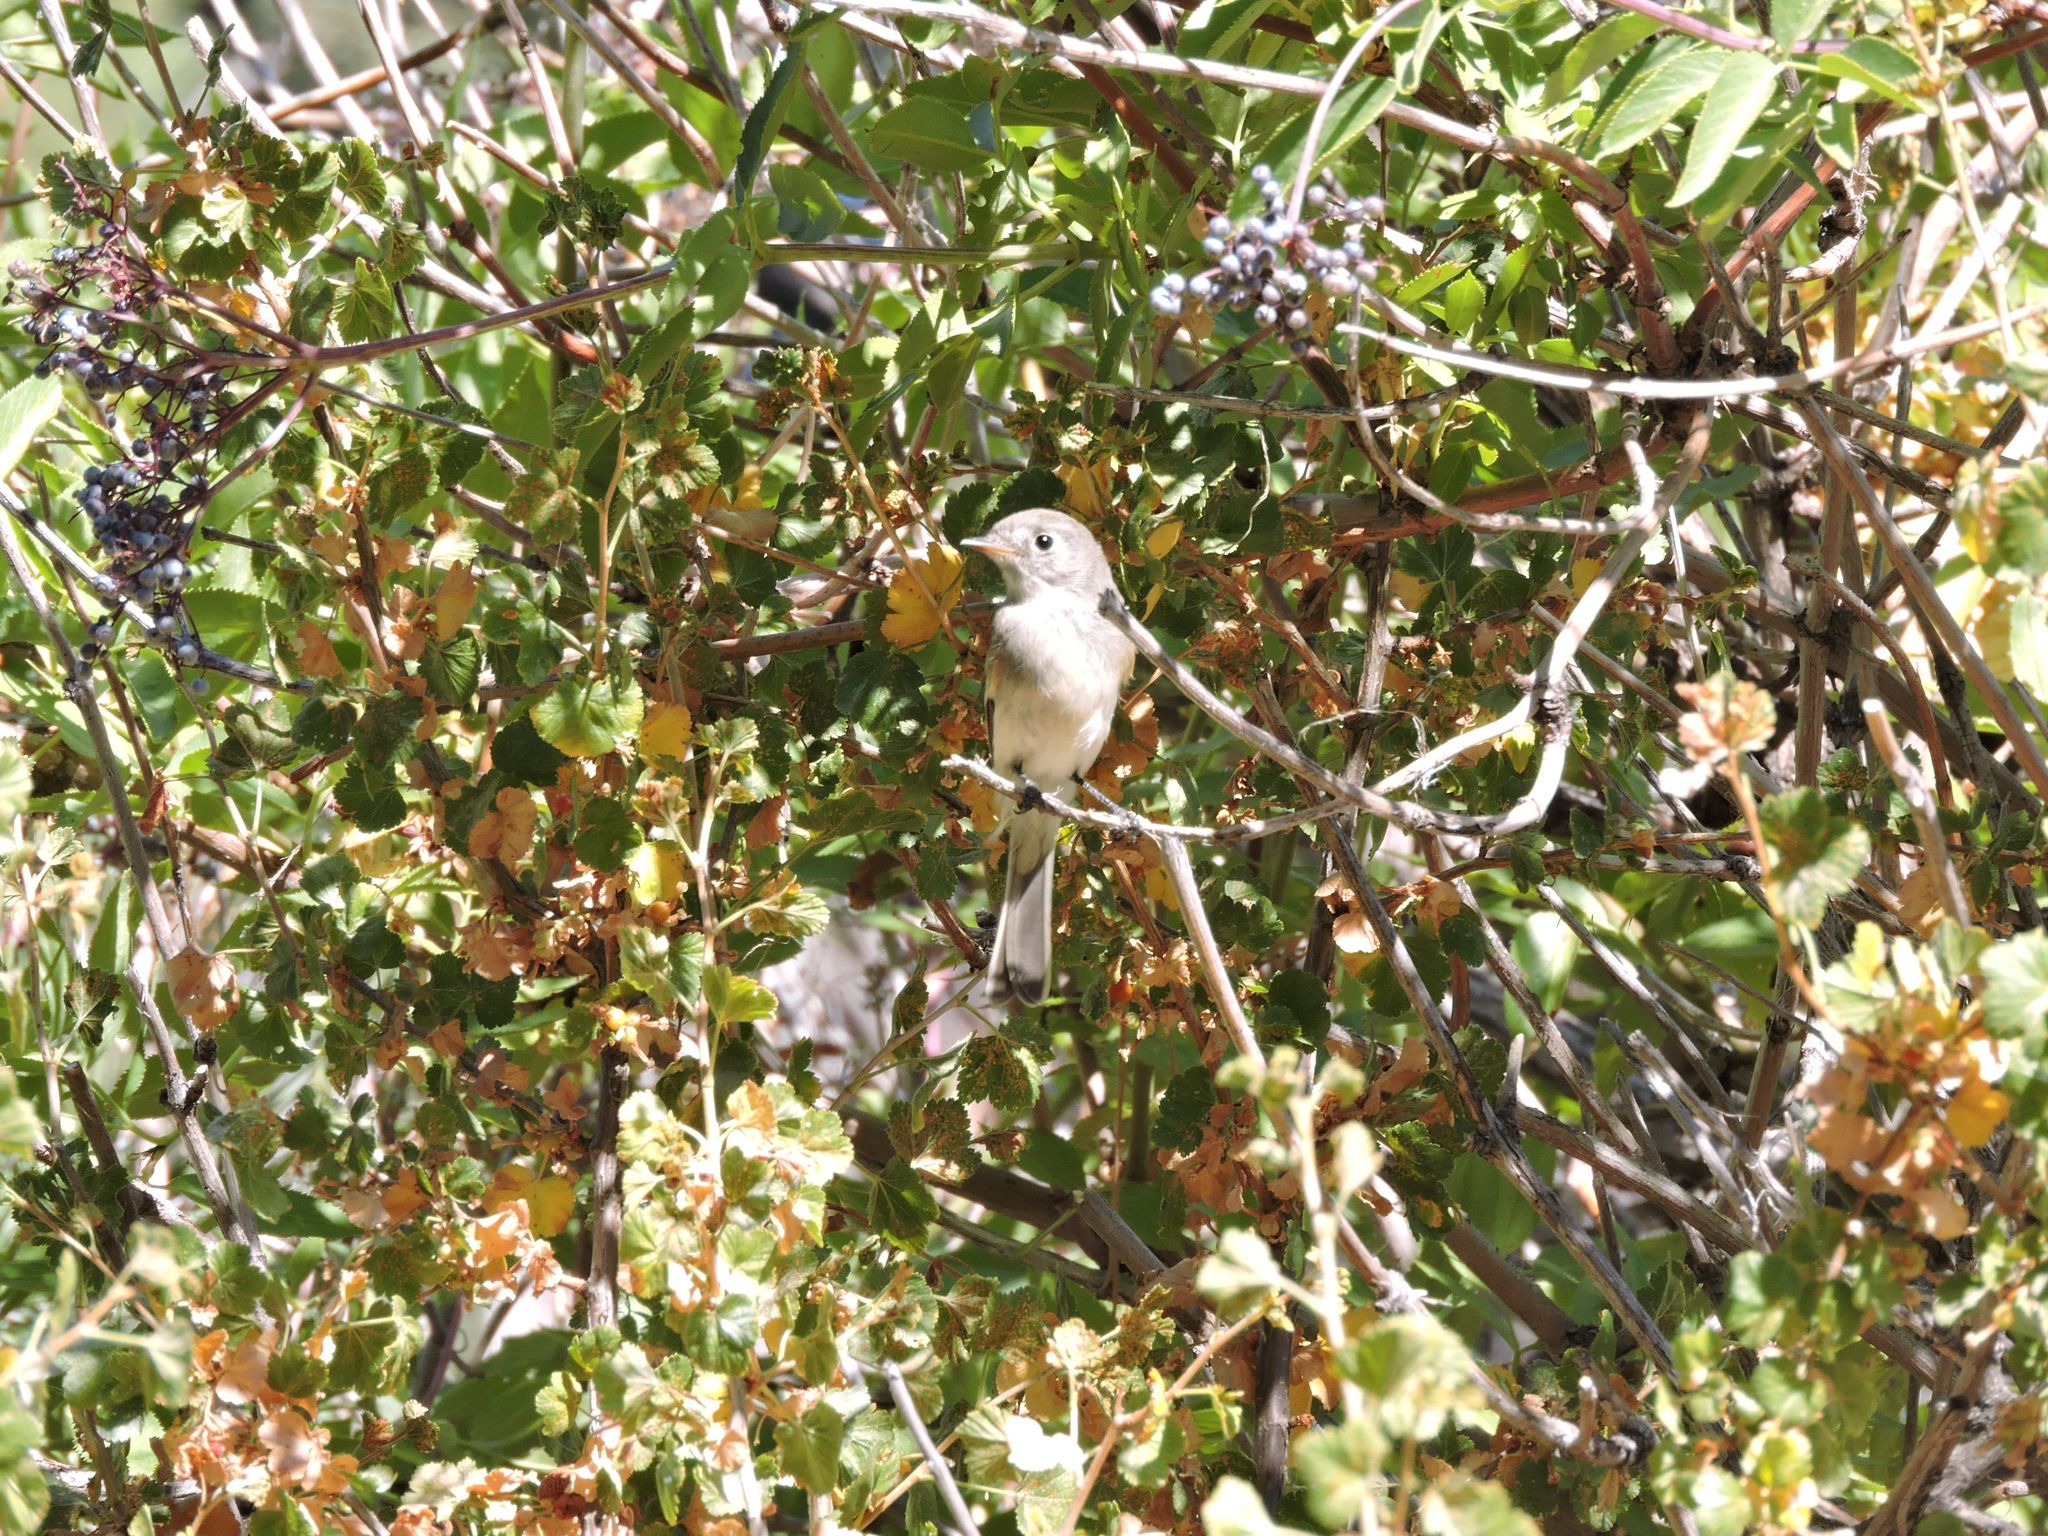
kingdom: Animalia
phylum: Chordata
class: Aves
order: Passeriformes
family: Tyrannidae
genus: Empidonax
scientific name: Empidonax oberholseri
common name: Dusky flycatcher
